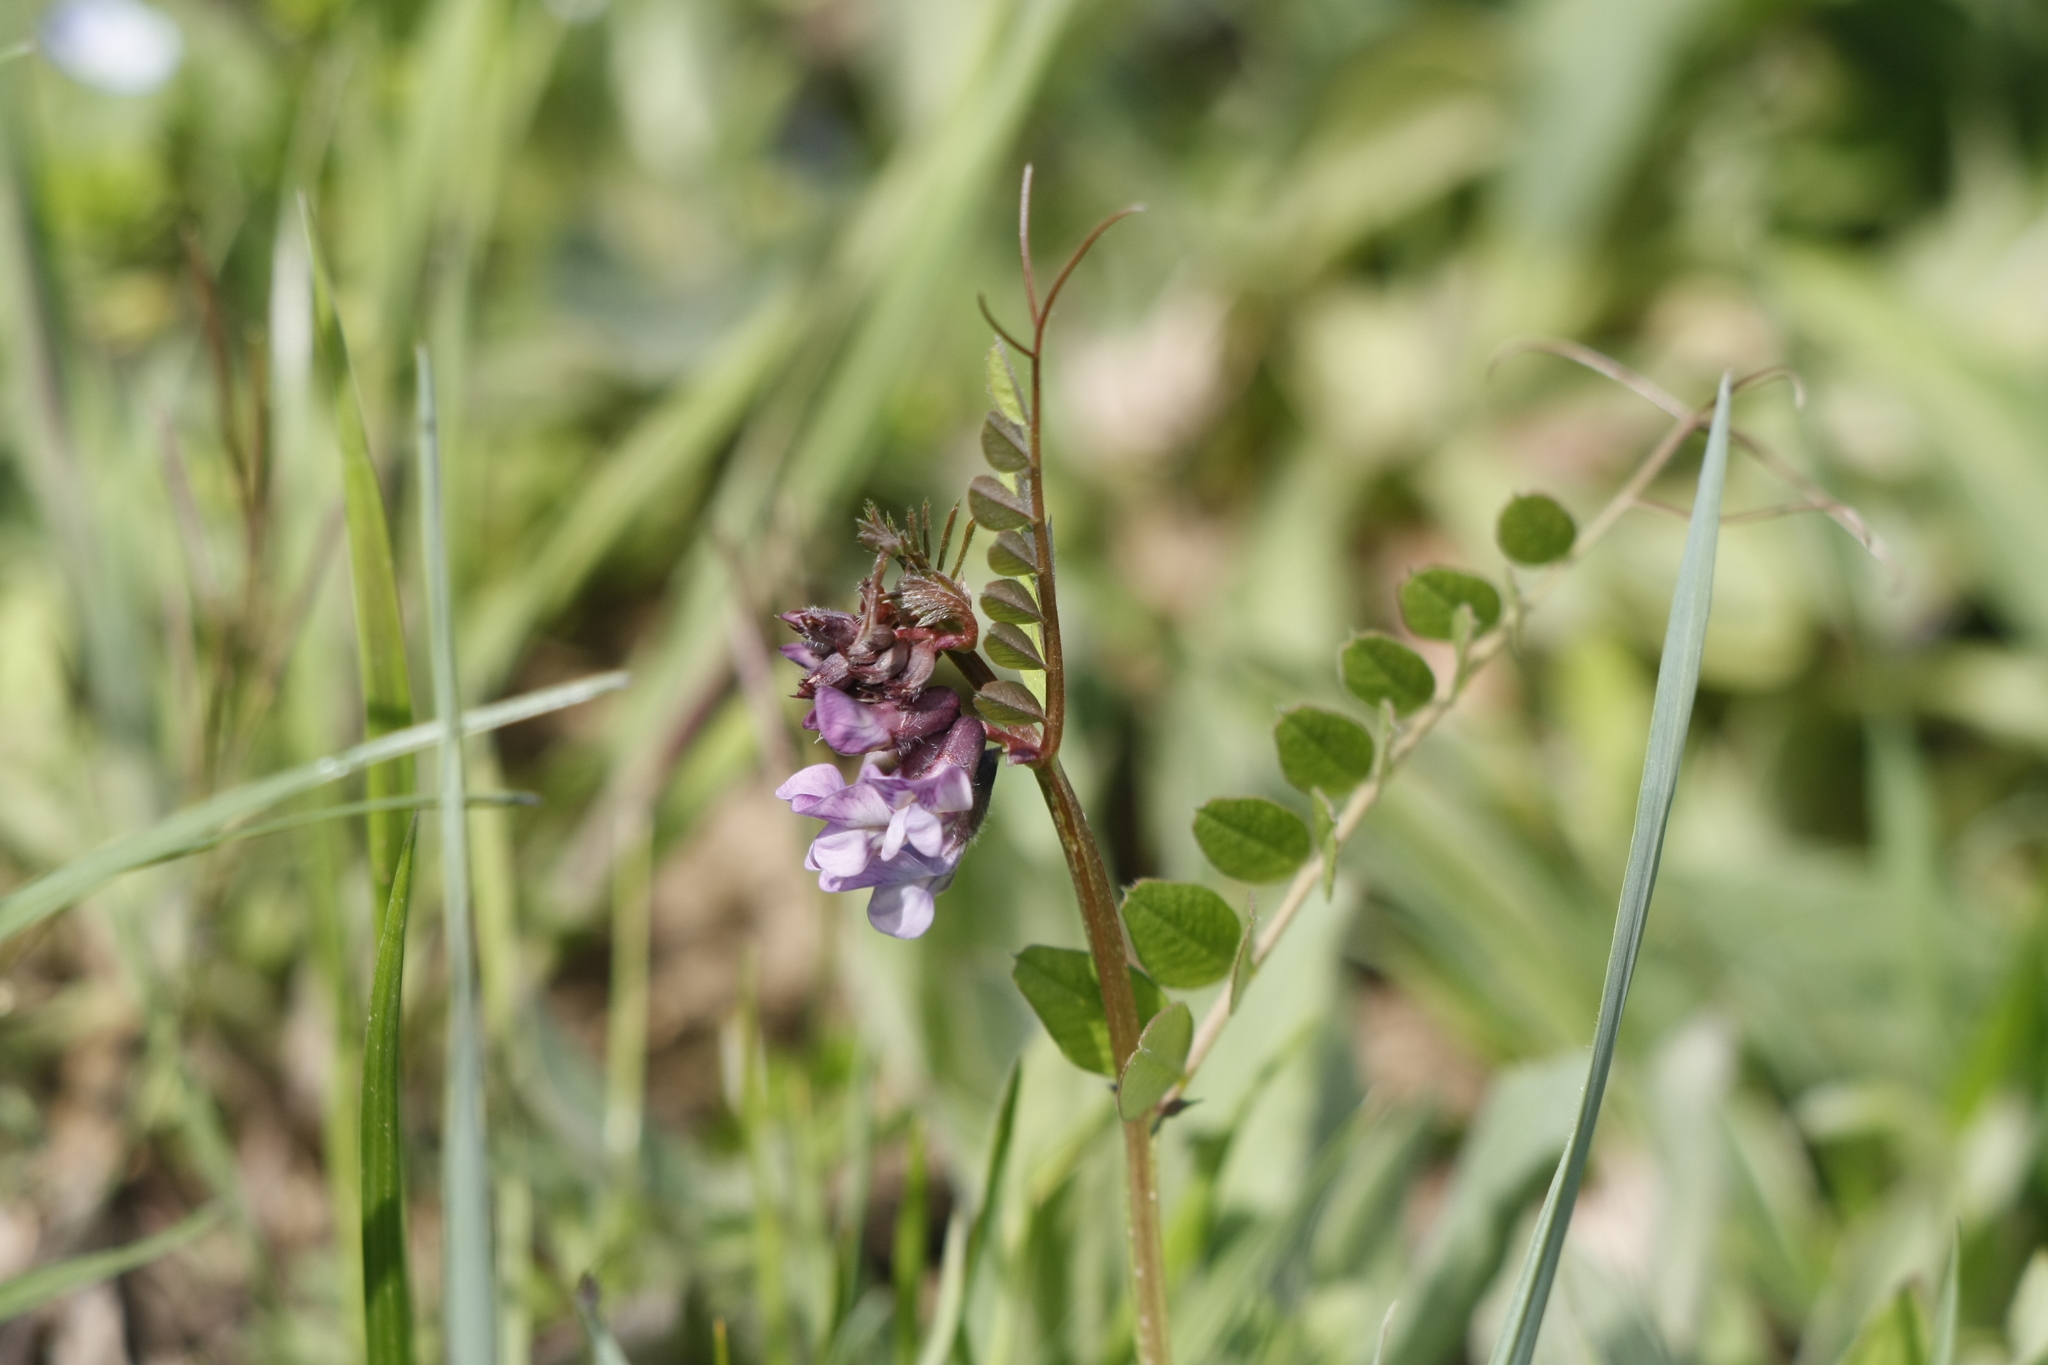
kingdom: Plantae
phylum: Tracheophyta
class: Magnoliopsida
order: Fabales
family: Fabaceae
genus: Vicia
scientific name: Vicia sepium
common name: Bush vetch
